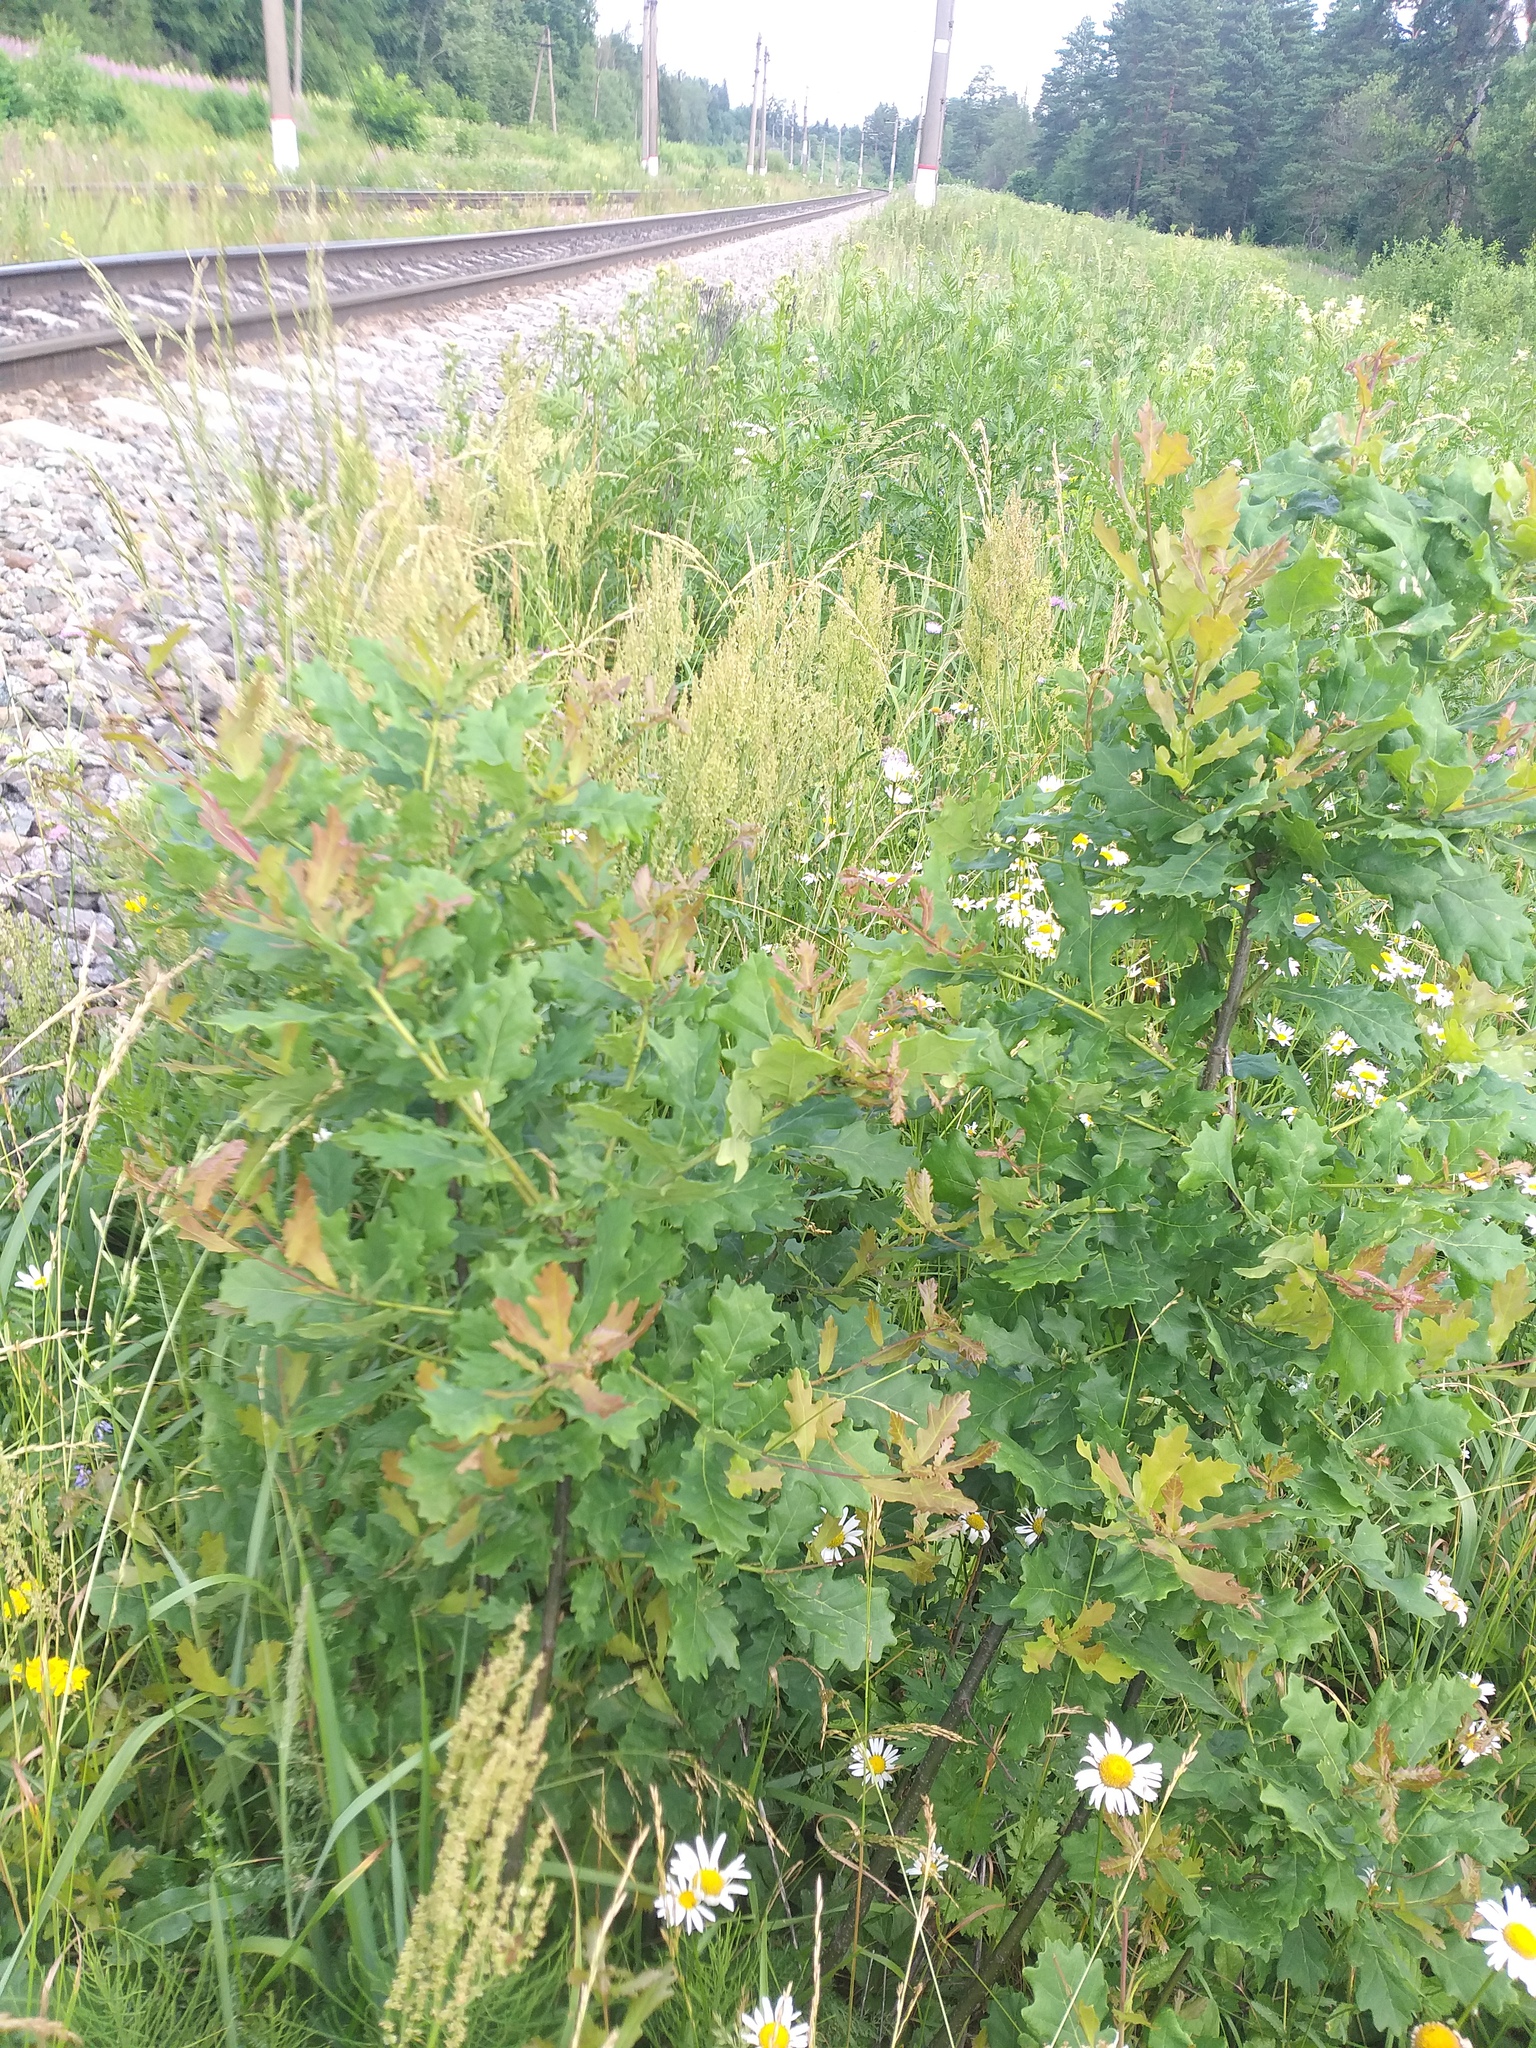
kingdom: Plantae
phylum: Tracheophyta
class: Magnoliopsida
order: Fagales
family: Fagaceae
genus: Quercus
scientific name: Quercus robur
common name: Pedunculate oak
